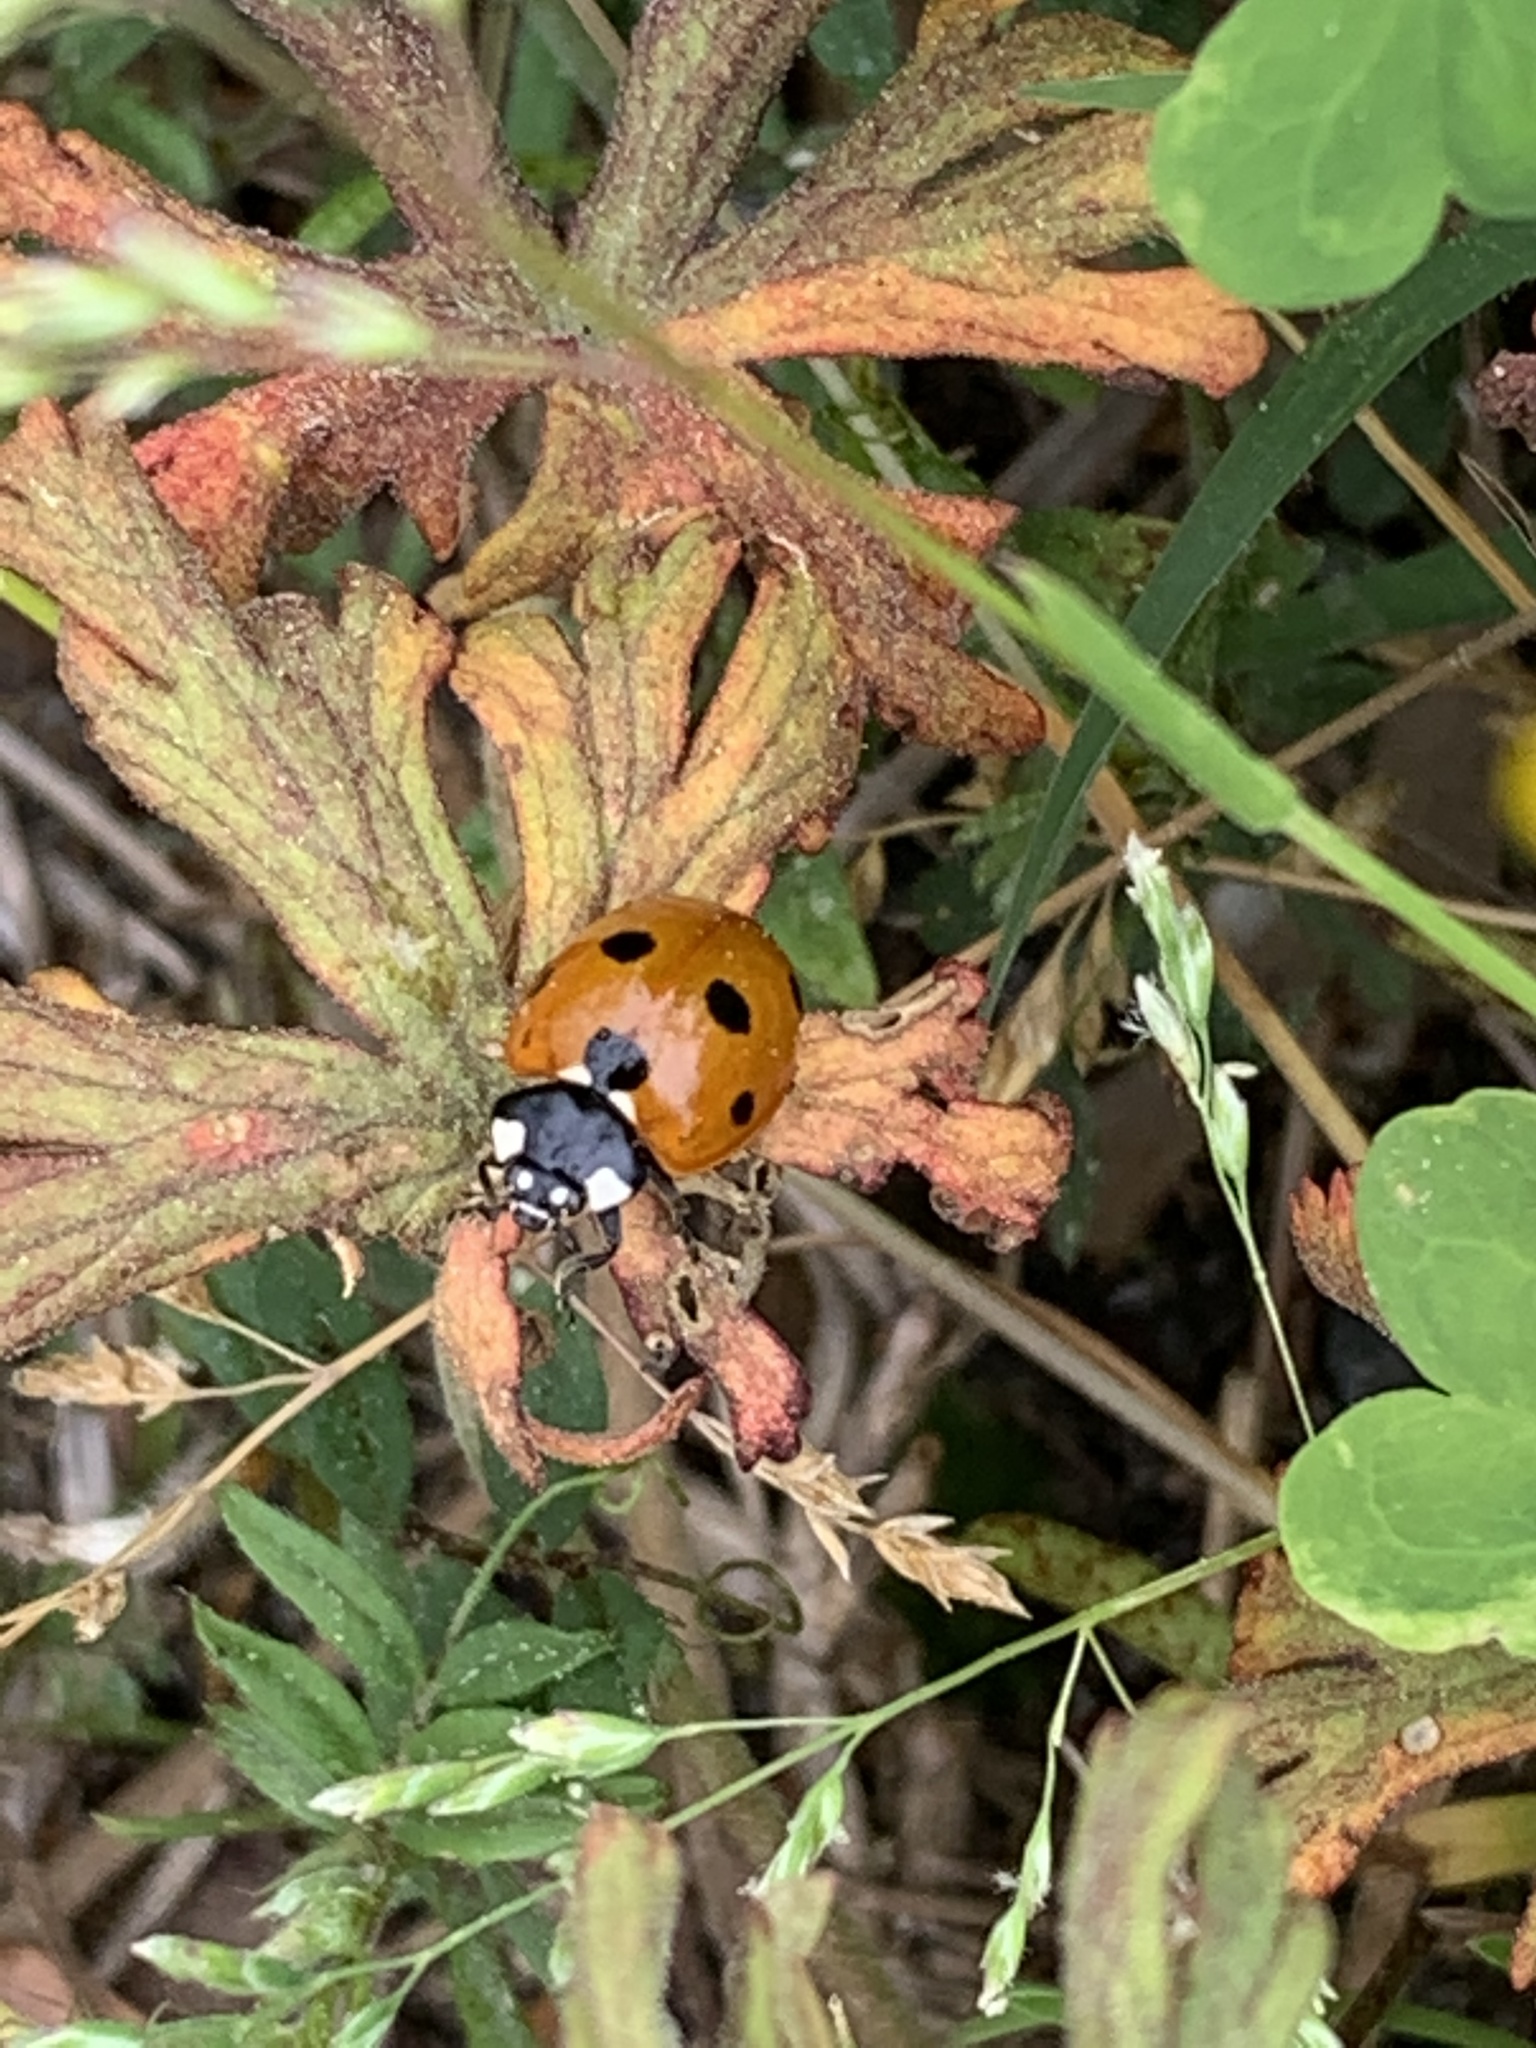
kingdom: Animalia
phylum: Arthropoda
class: Insecta
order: Coleoptera
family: Coccinellidae
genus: Coccinella
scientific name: Coccinella septempunctata
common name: Sevenspotted lady beetle
